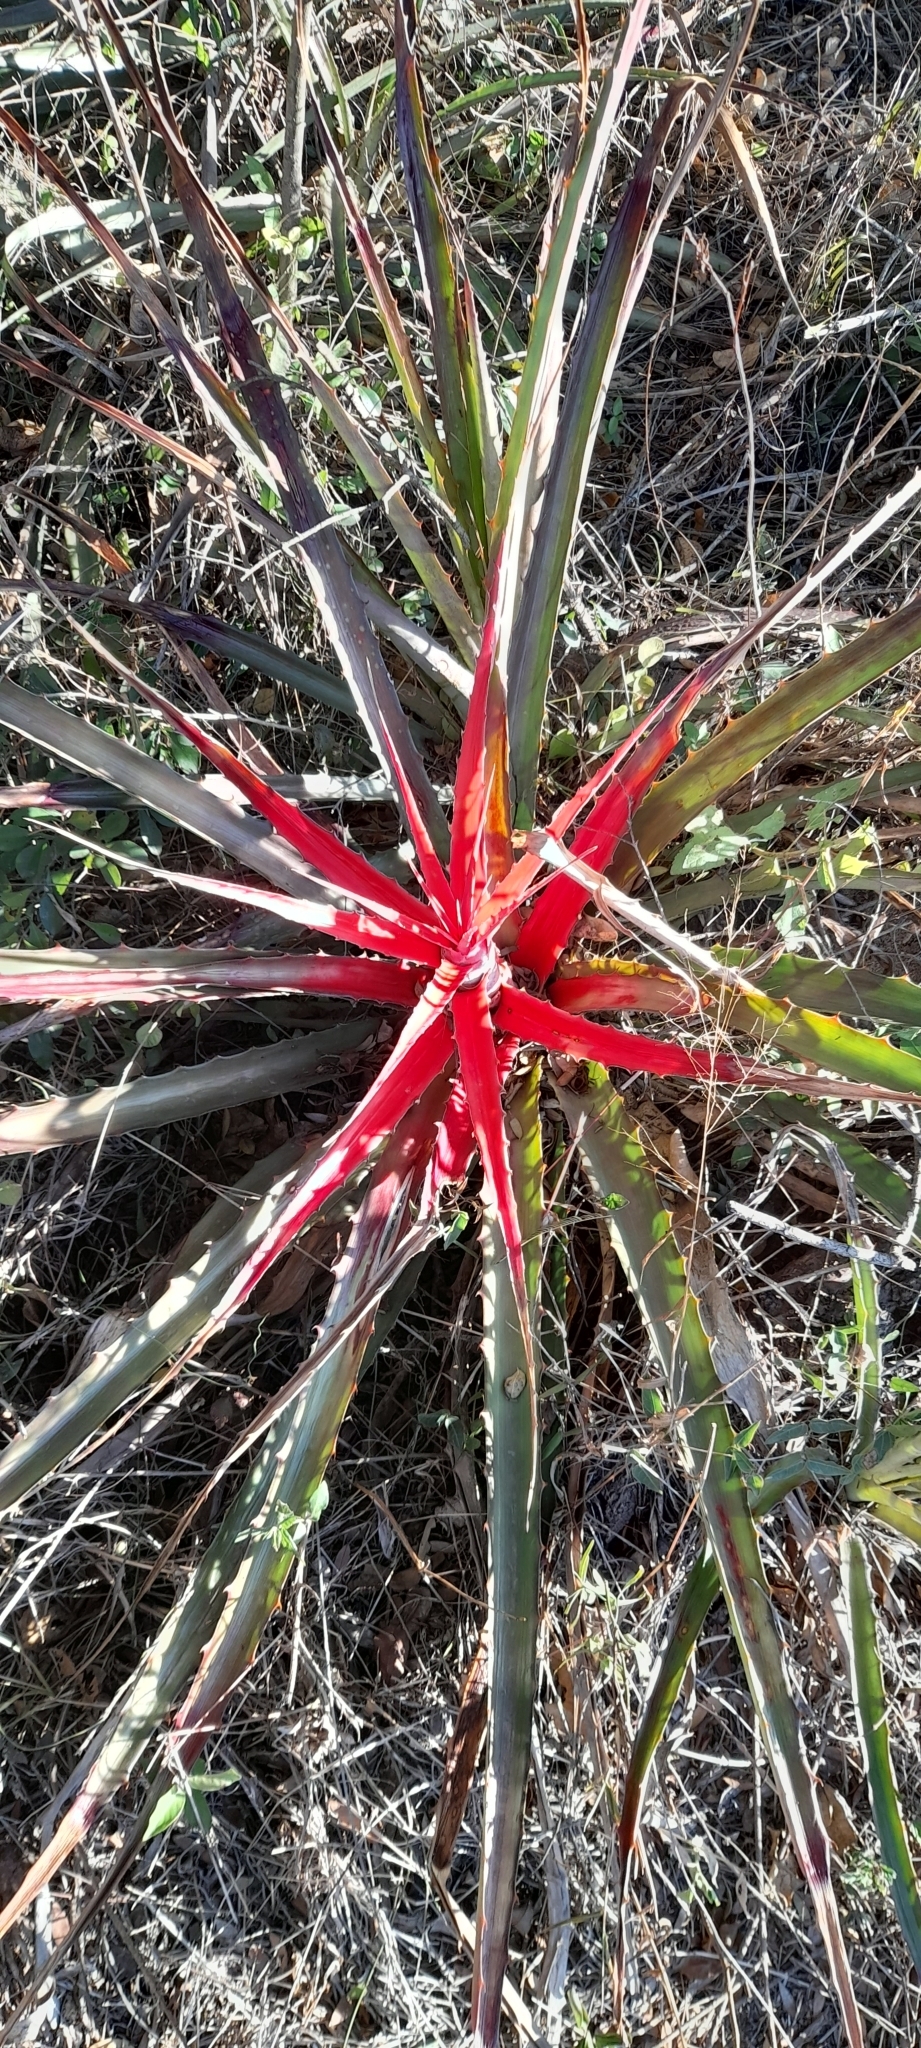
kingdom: Plantae
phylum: Tracheophyta
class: Liliopsida
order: Poales
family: Bromeliaceae
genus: Bromelia
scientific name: Bromelia serra
